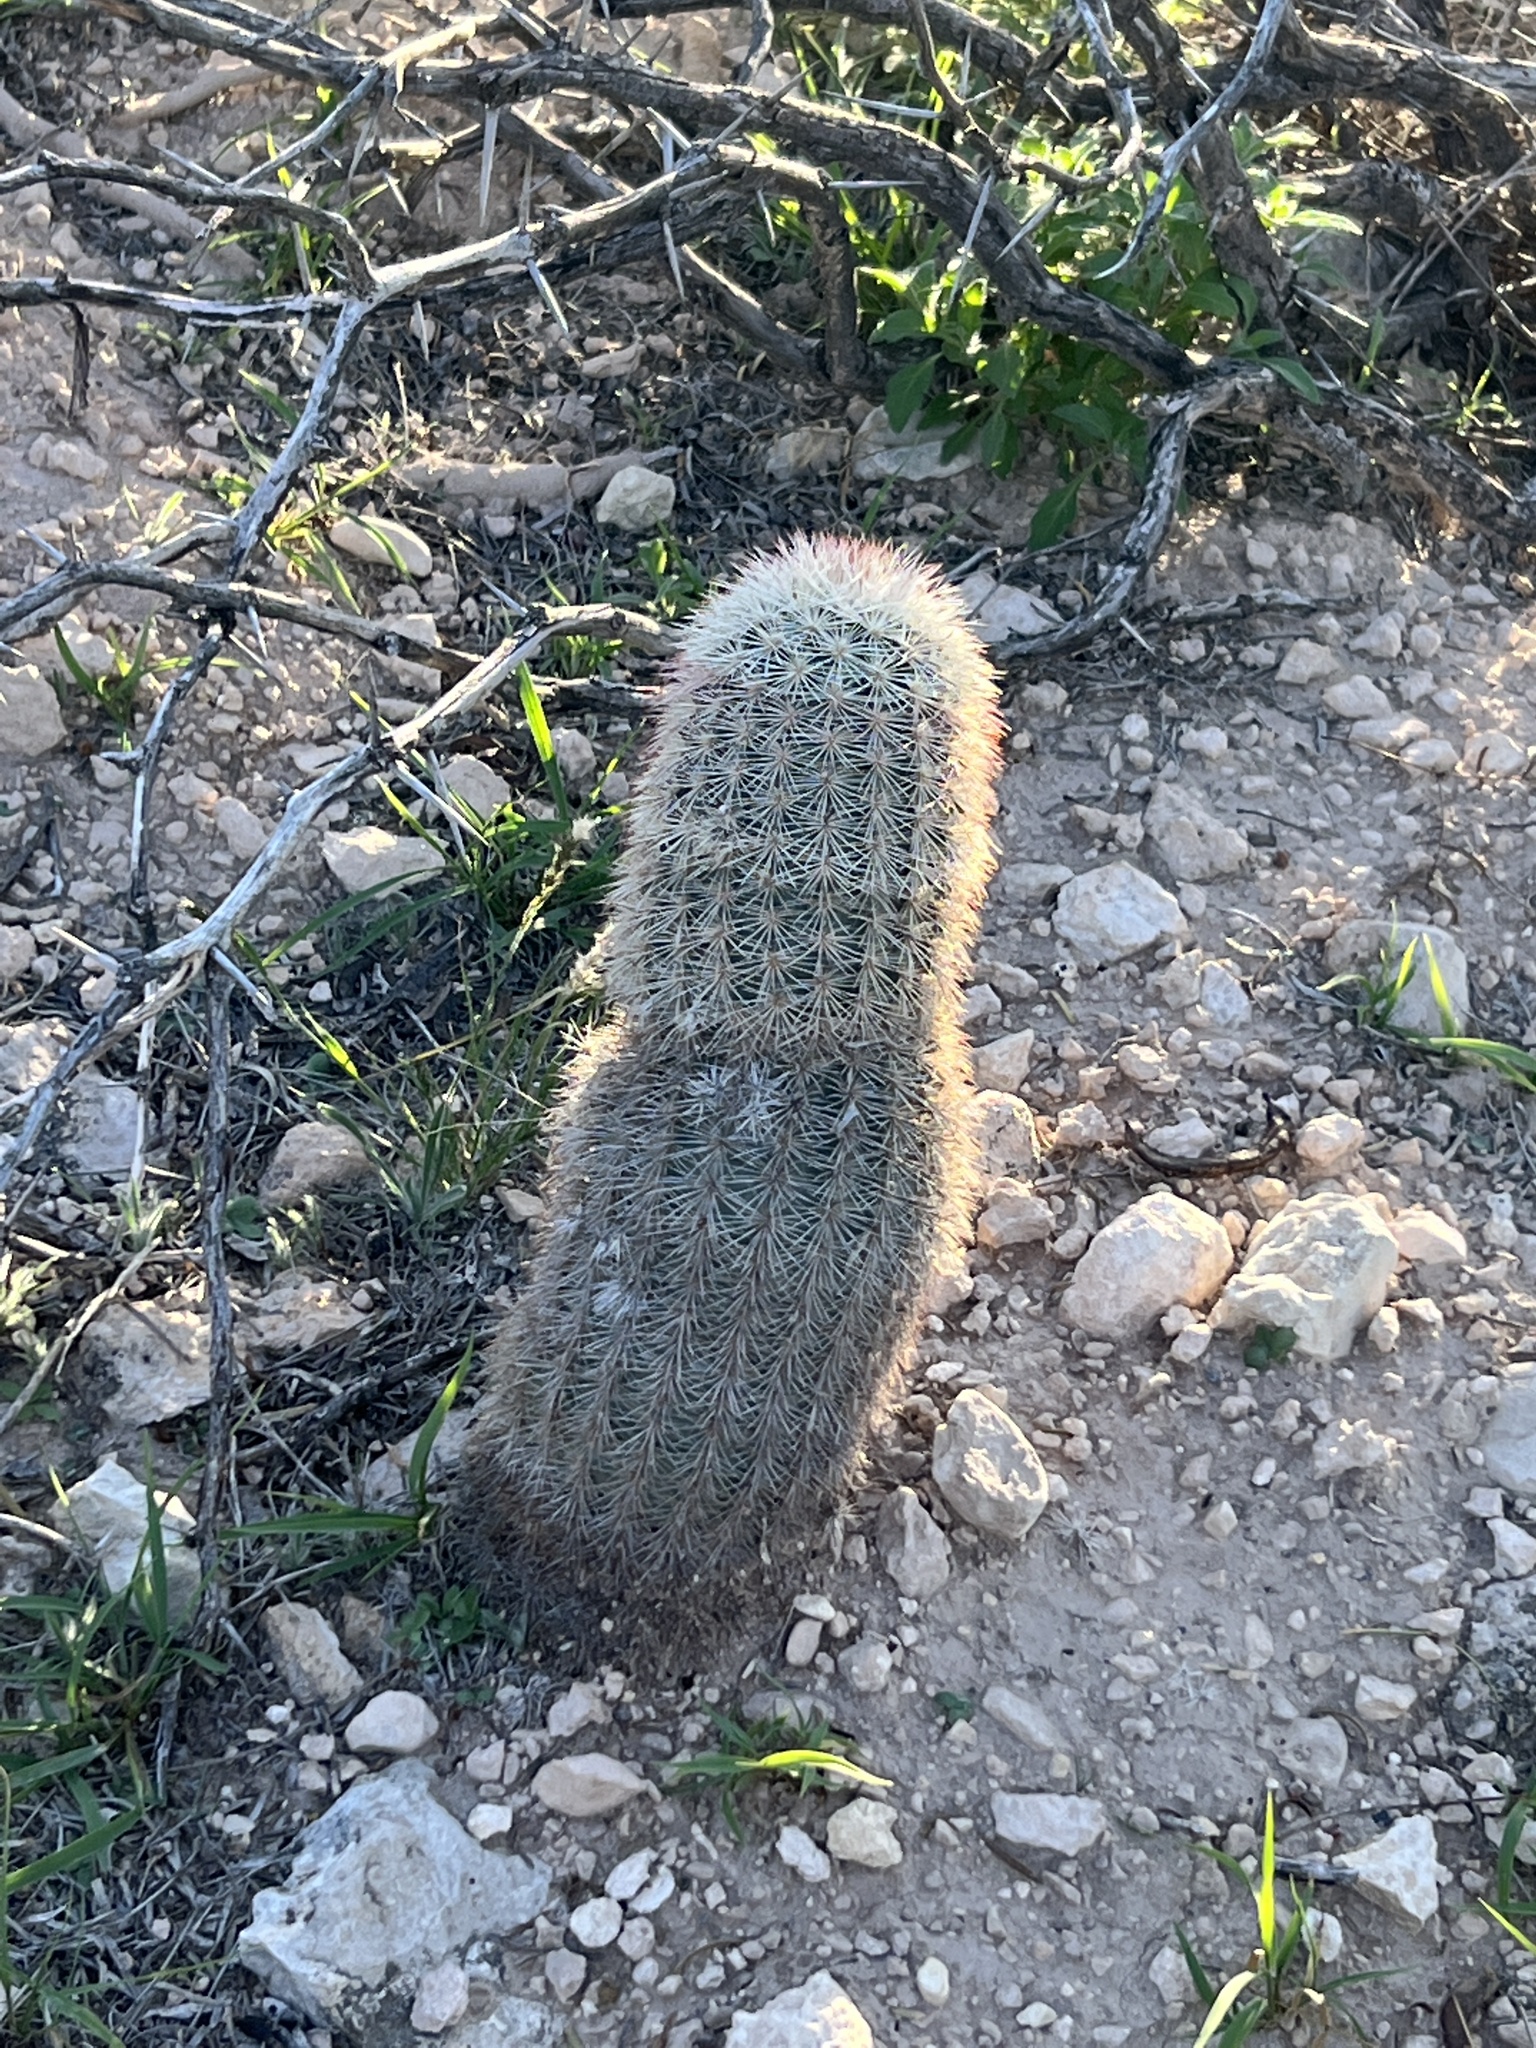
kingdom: Plantae
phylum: Tracheophyta
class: Magnoliopsida
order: Caryophyllales
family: Cactaceae
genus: Echinocereus
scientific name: Echinocereus dasyacanthus
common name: Spiny hedgehog cactus
